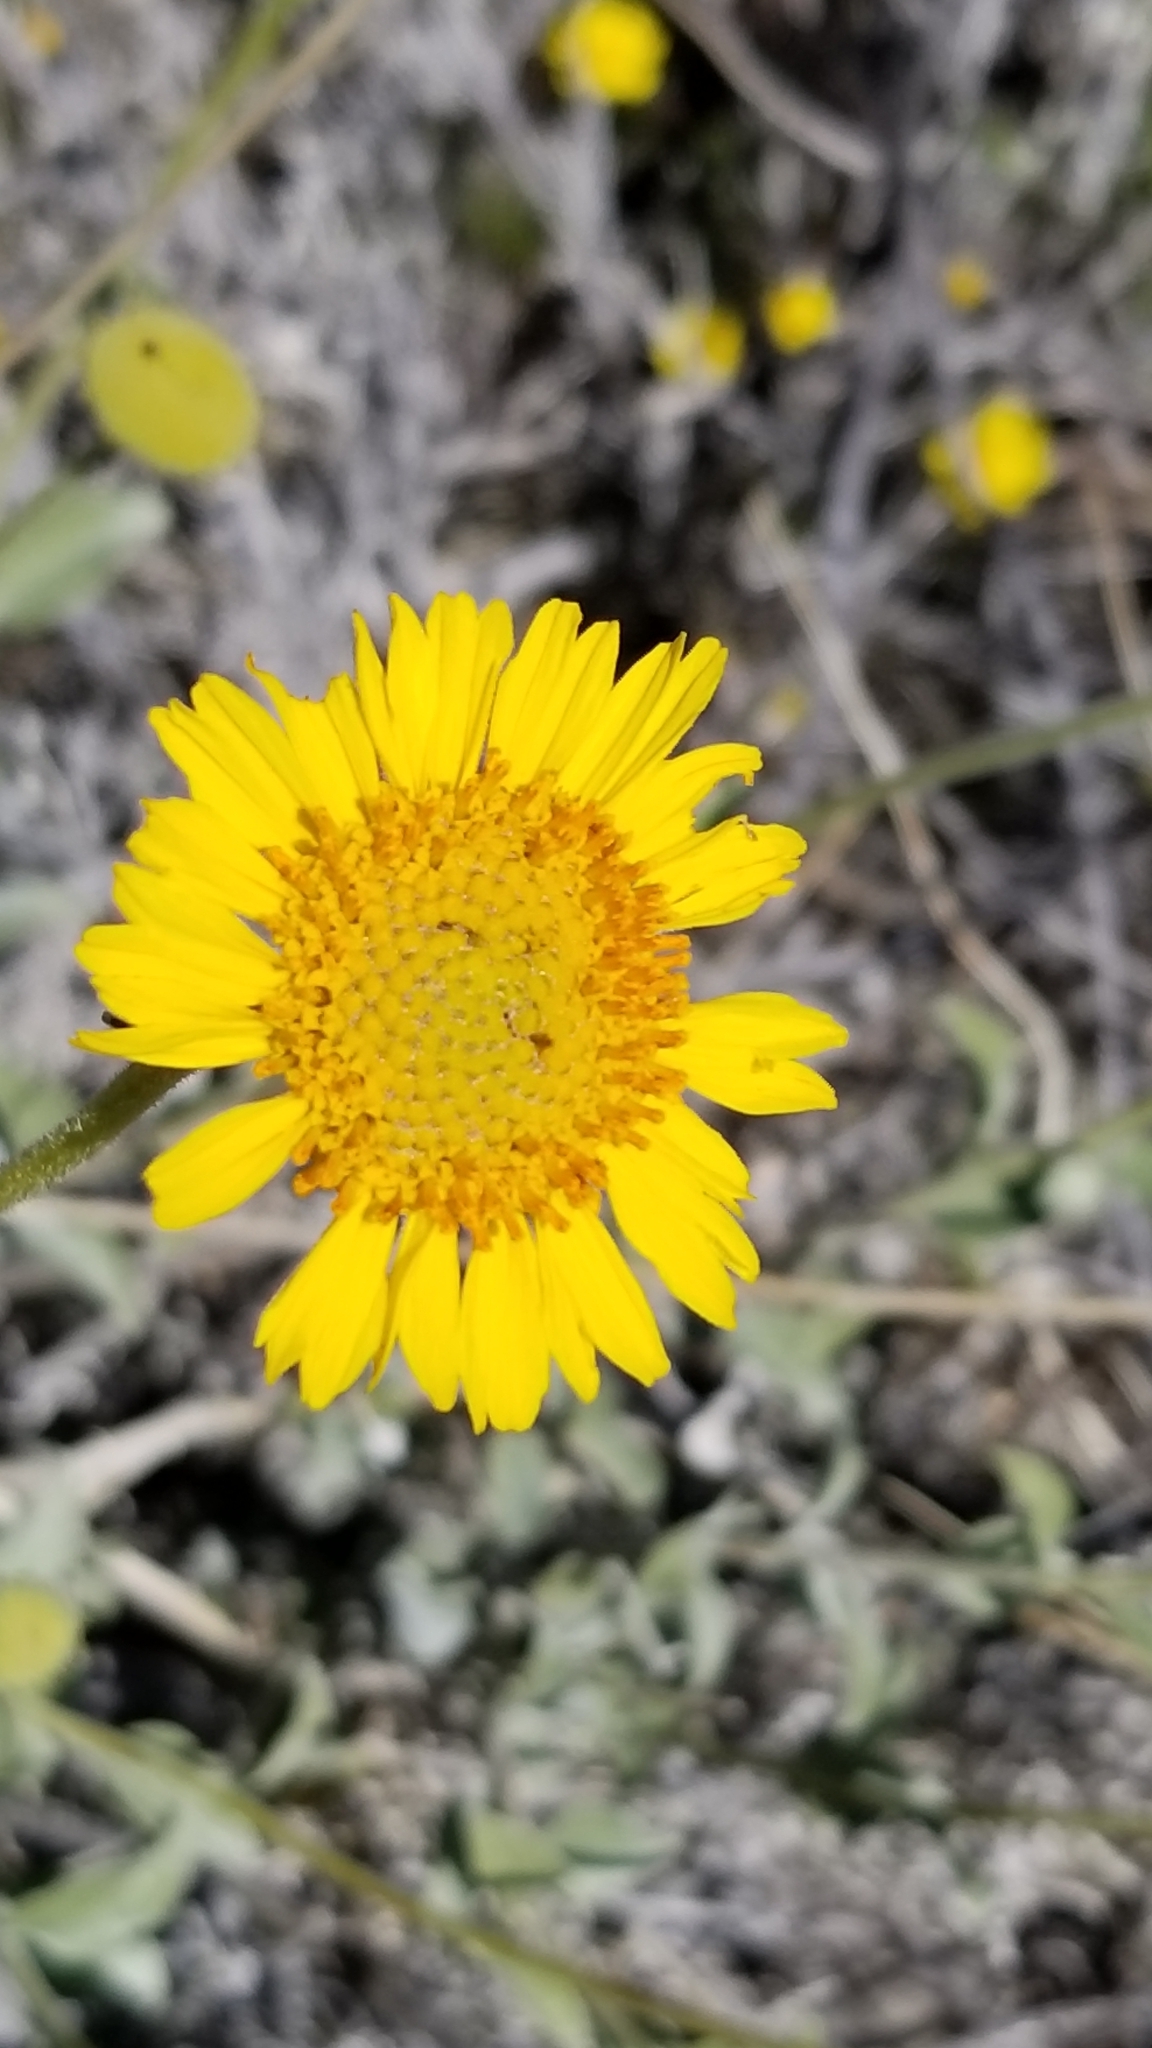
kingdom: Plantae
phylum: Tracheophyta
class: Magnoliopsida
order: Asterales
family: Asteraceae
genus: Encelia
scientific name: Encelia actoni
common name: Acton encelia
